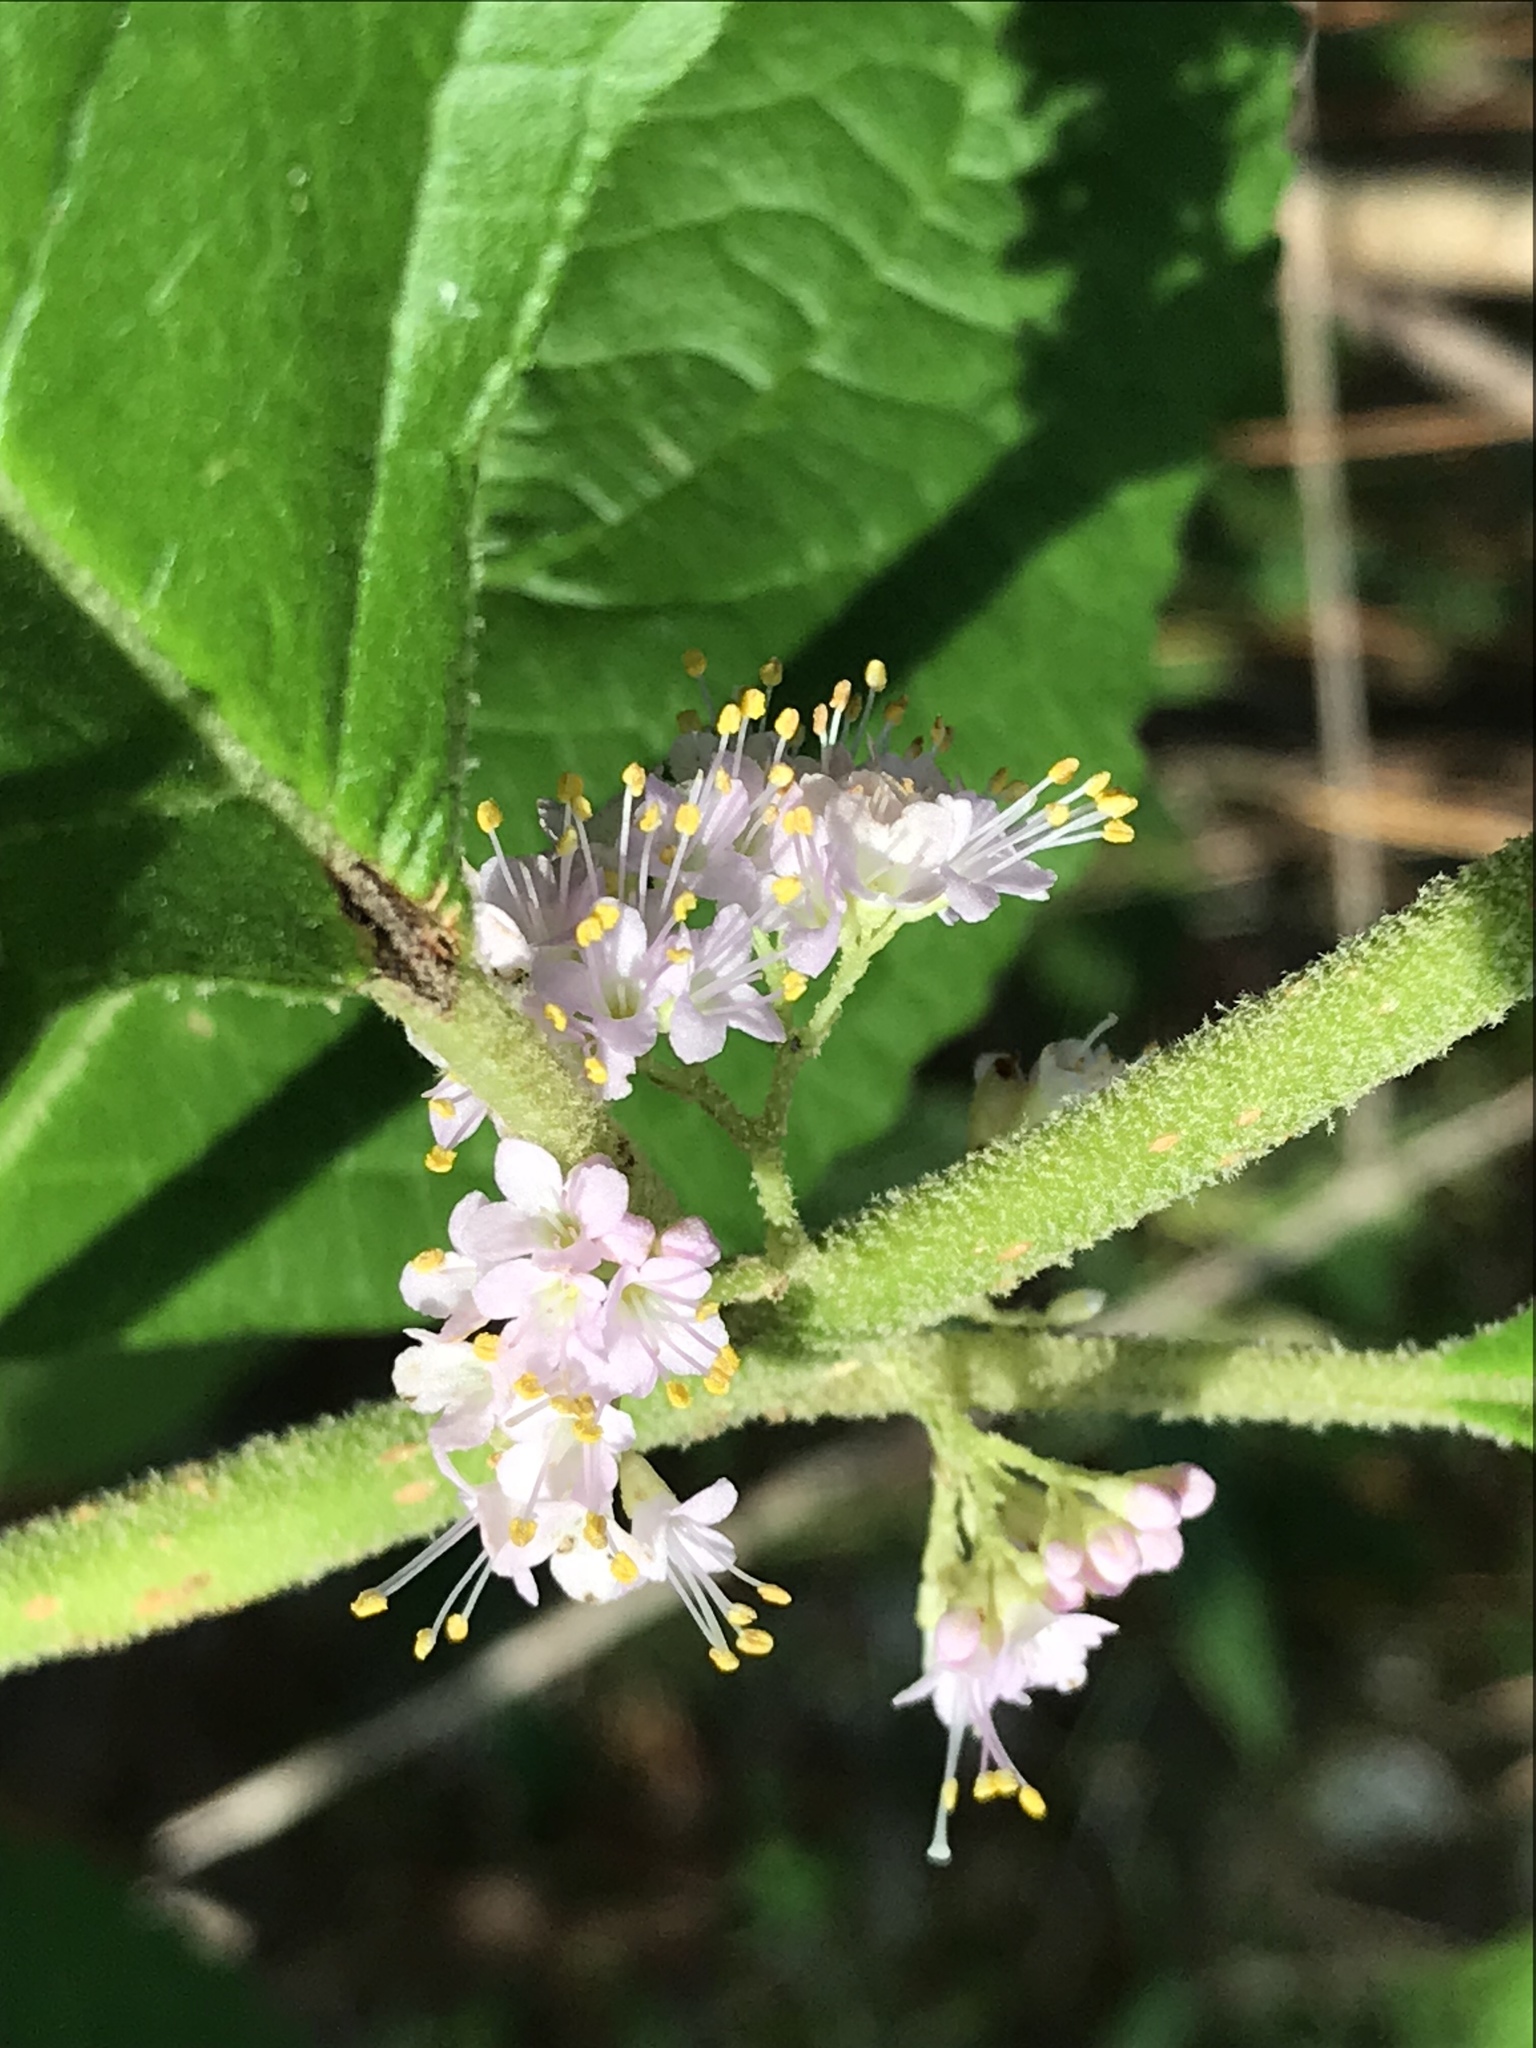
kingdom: Plantae
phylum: Tracheophyta
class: Magnoliopsida
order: Lamiales
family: Lamiaceae
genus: Callicarpa
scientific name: Callicarpa americana
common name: American beautyberry
